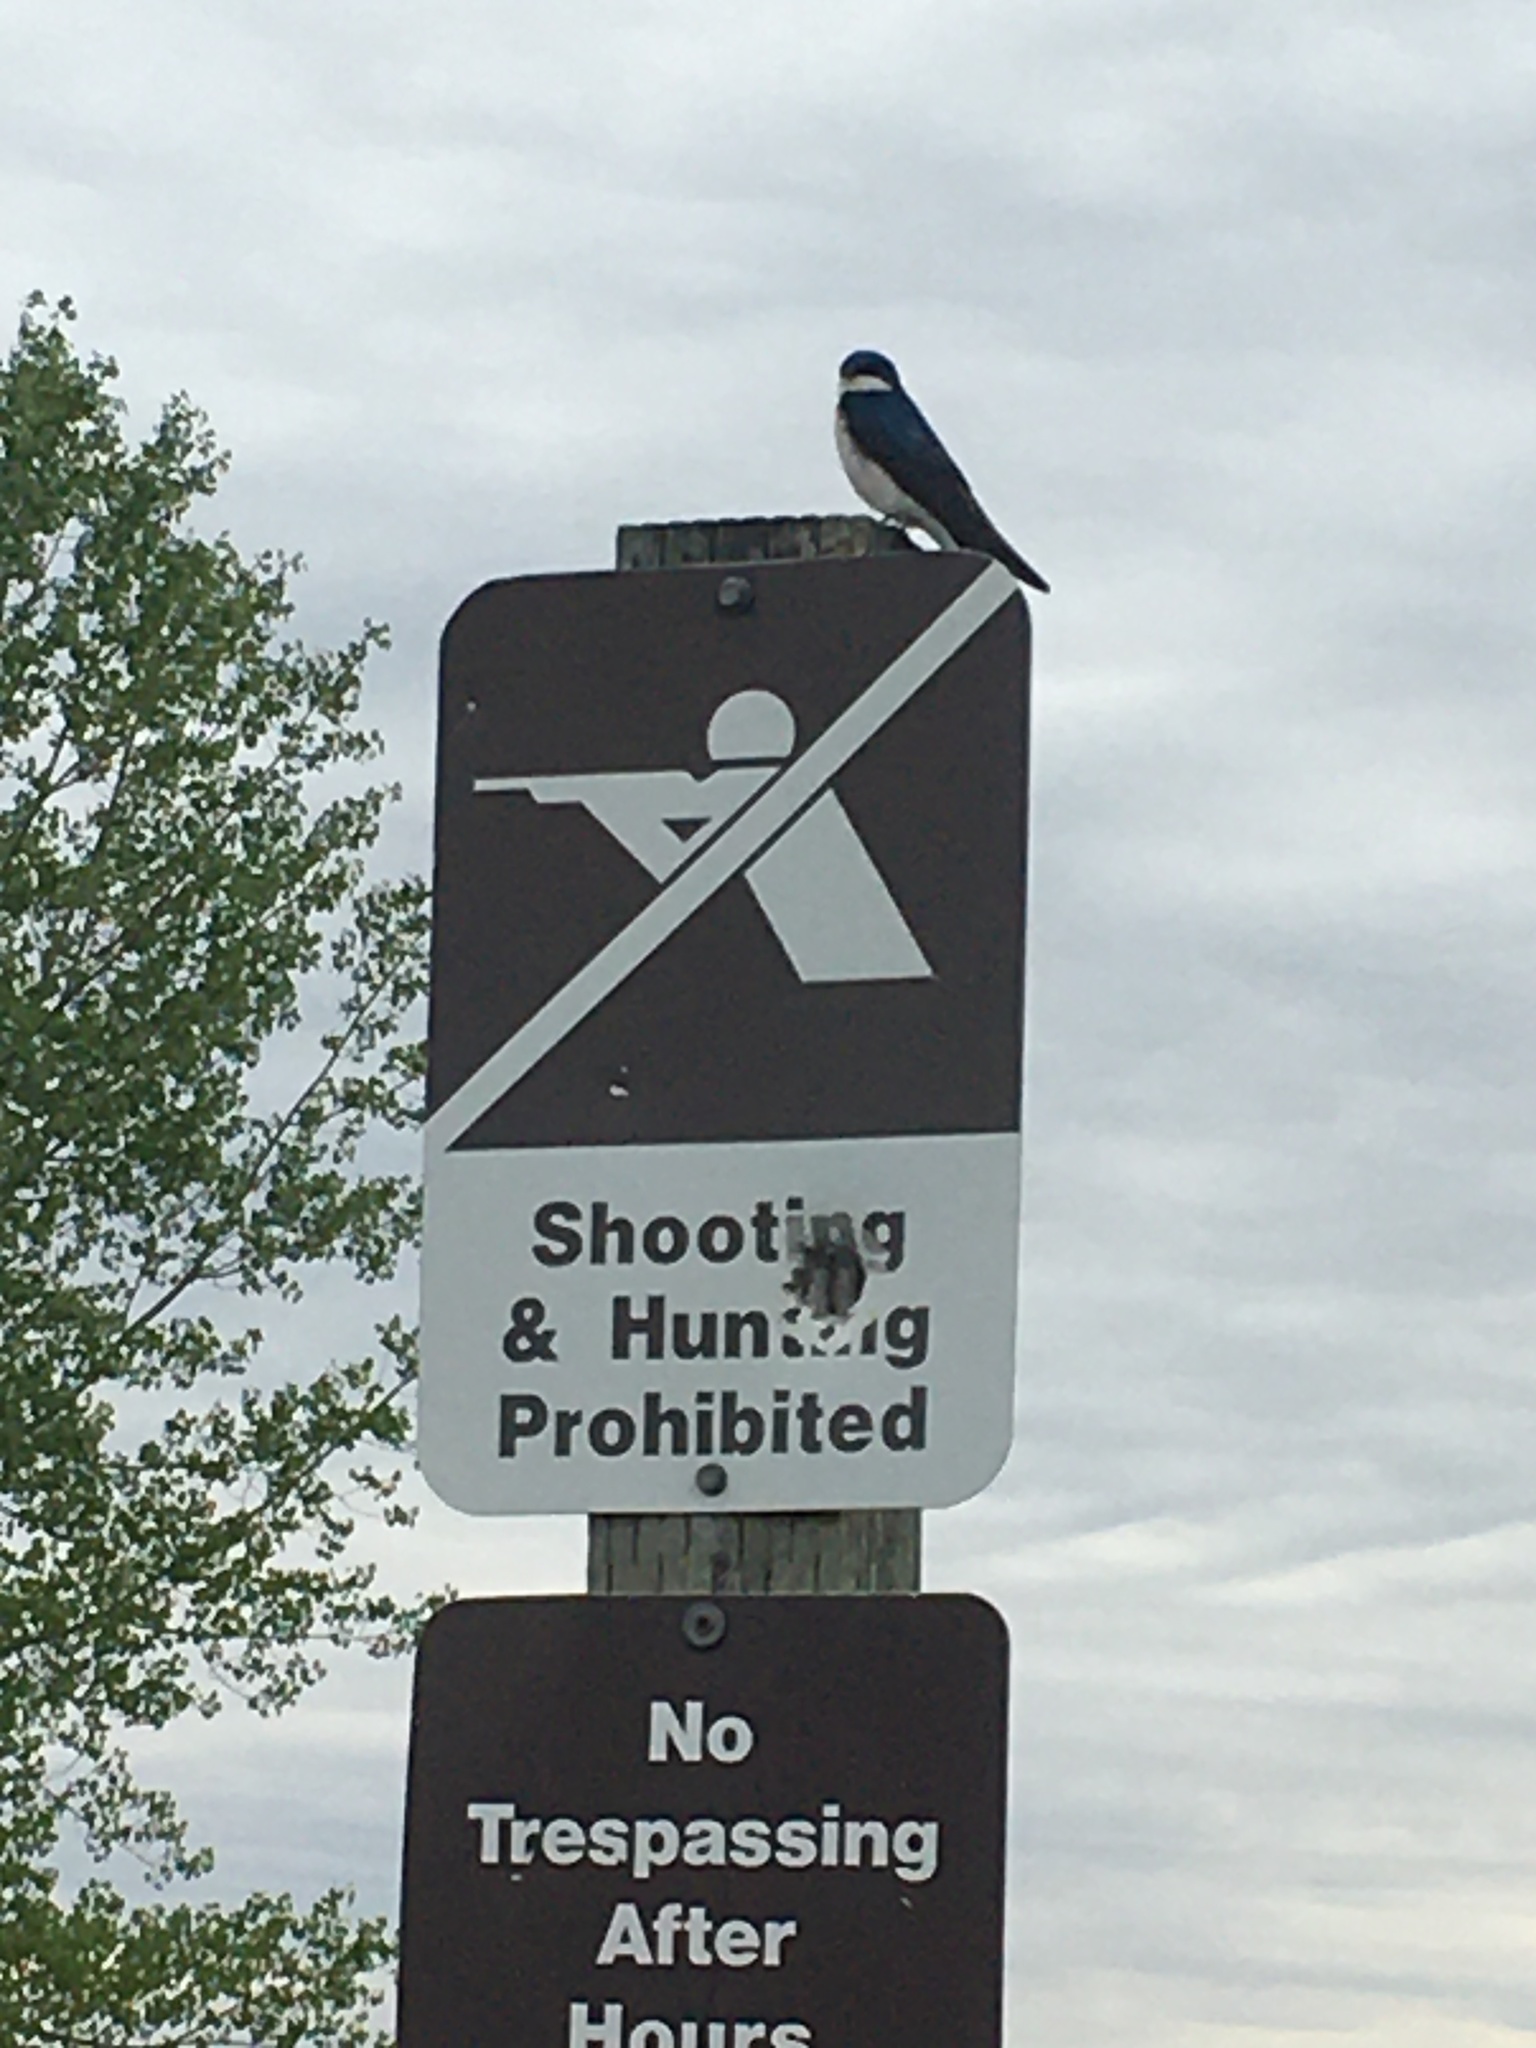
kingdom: Animalia
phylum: Chordata
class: Aves
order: Passeriformes
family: Hirundinidae
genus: Tachycineta
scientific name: Tachycineta bicolor
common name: Tree swallow
